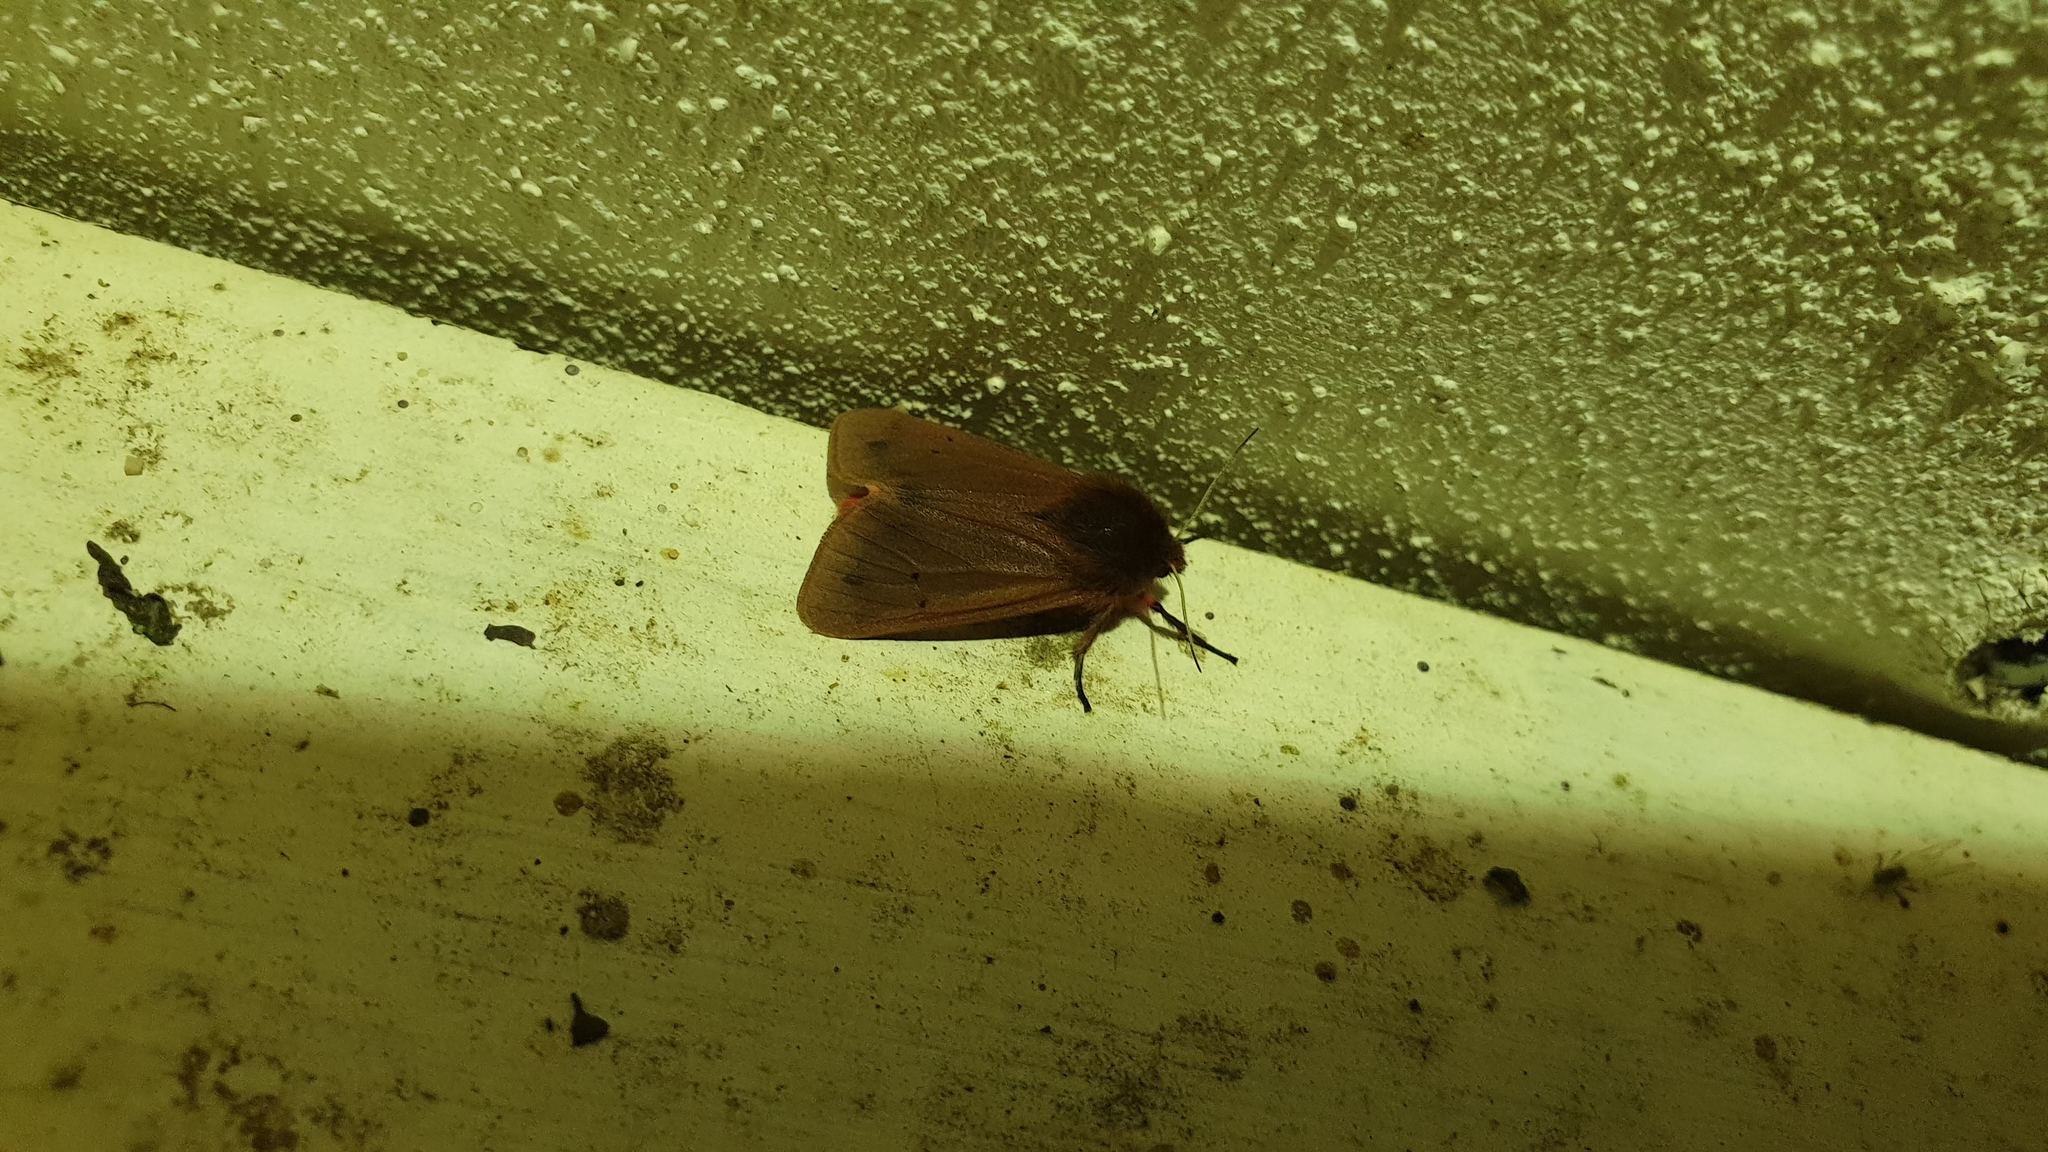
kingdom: Animalia
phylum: Arthropoda
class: Insecta
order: Lepidoptera
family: Erebidae
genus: Phragmatobia
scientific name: Phragmatobia fuliginosa
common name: Ruby tiger
